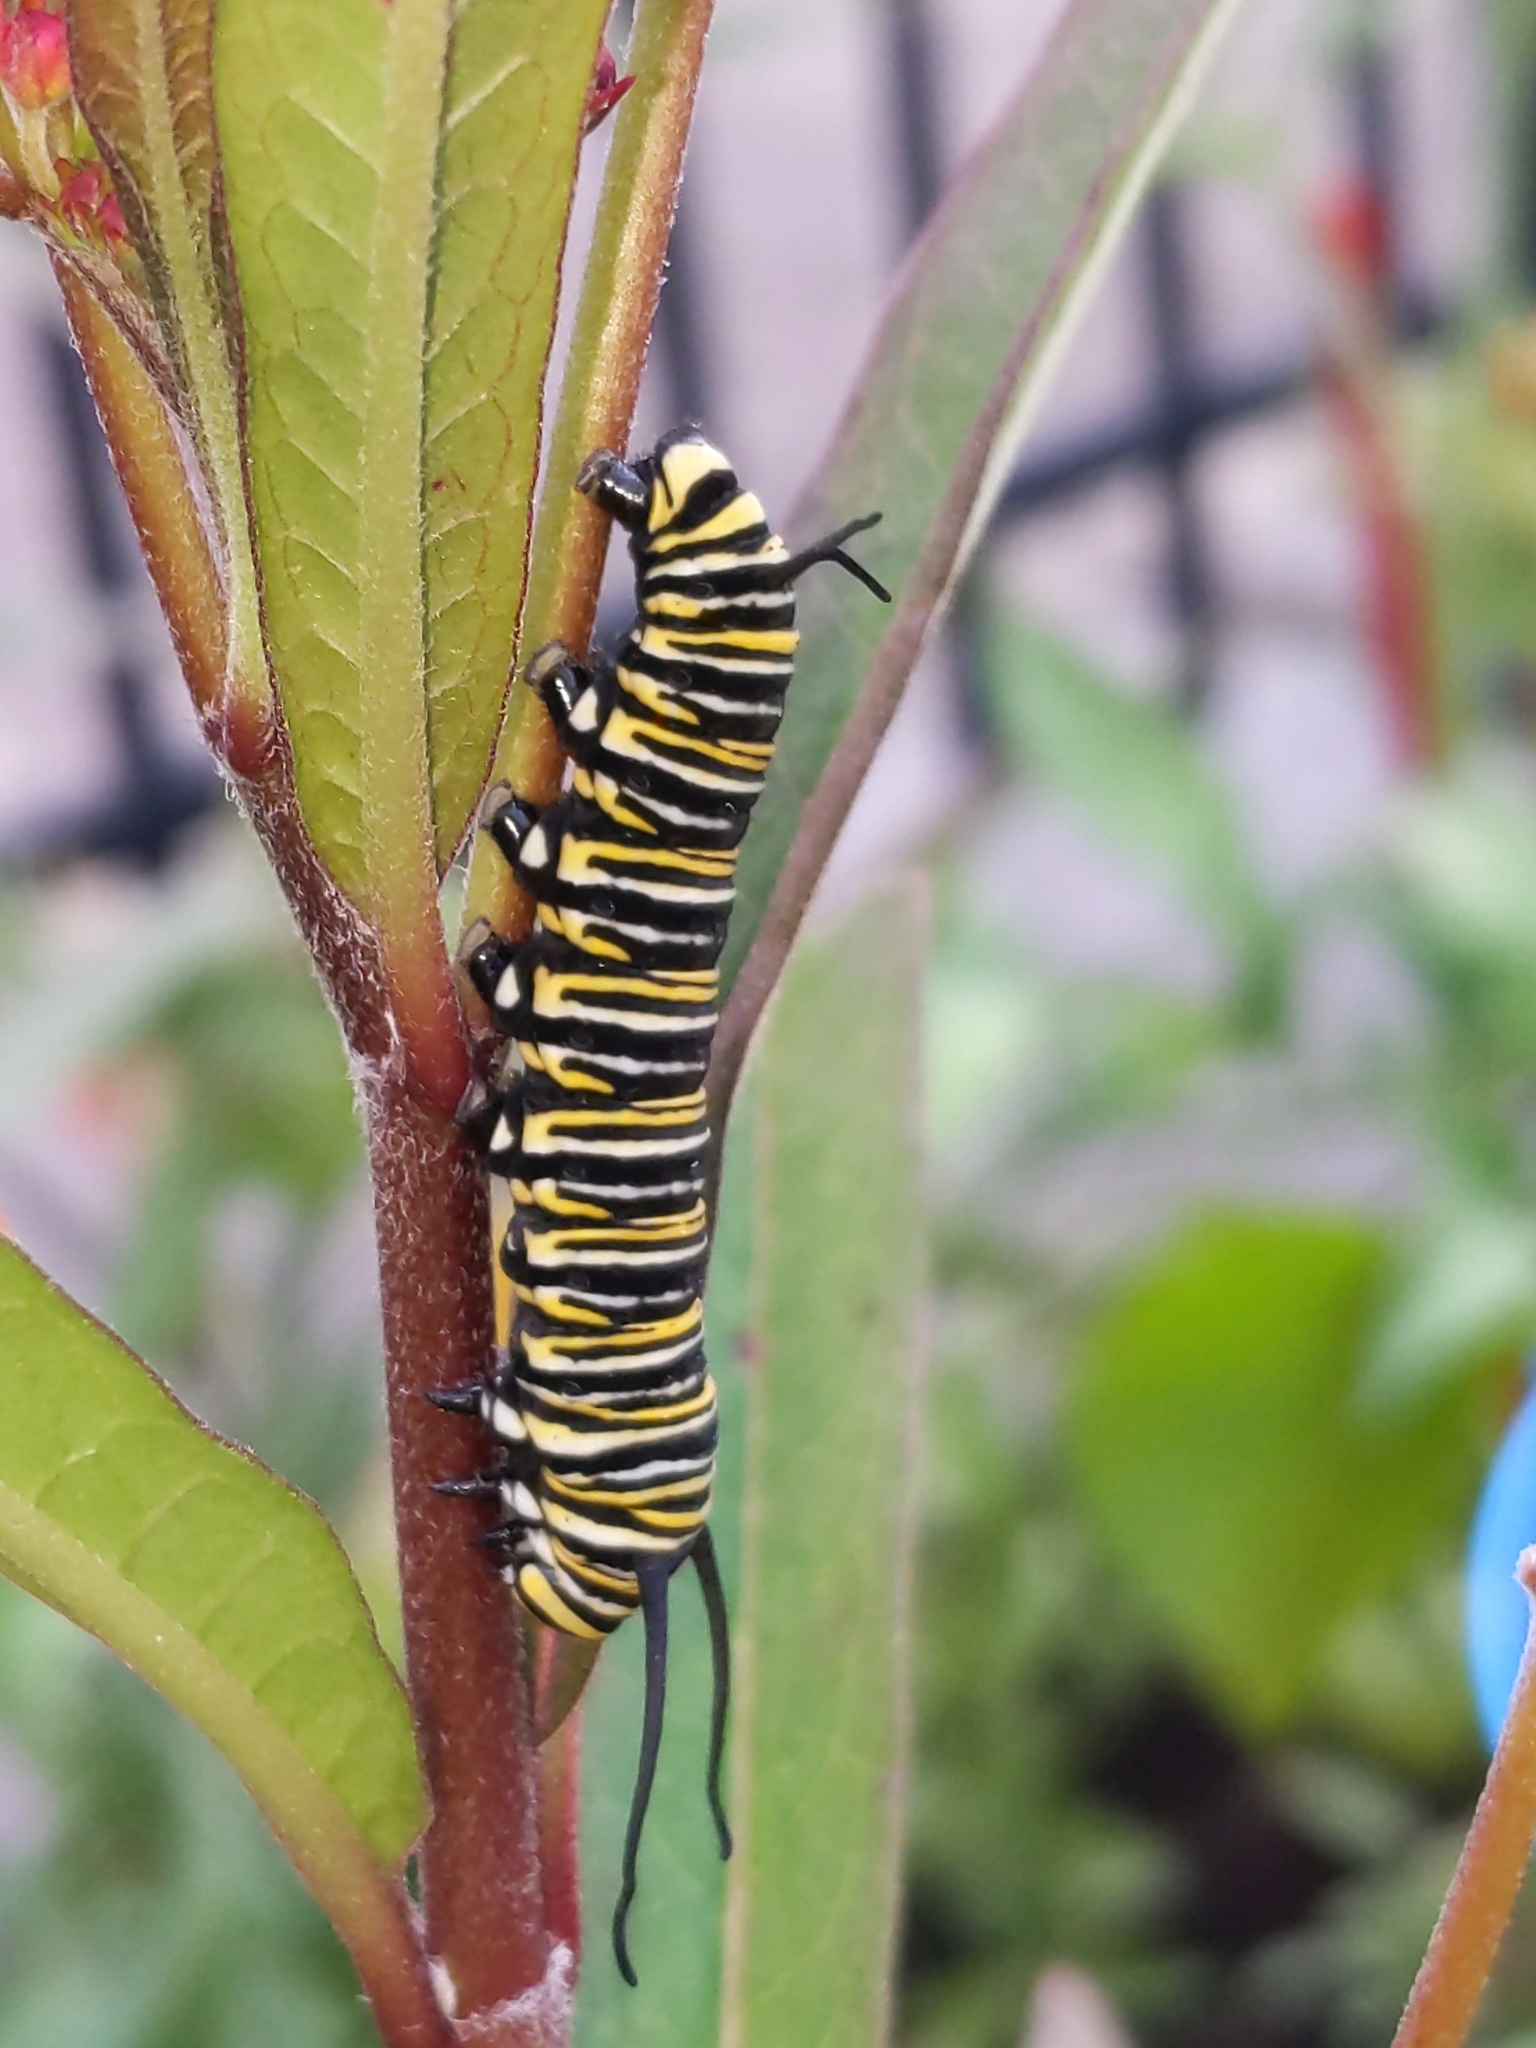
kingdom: Animalia
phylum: Arthropoda
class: Insecta
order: Lepidoptera
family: Nymphalidae
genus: Danaus
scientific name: Danaus plexippus
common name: Monarch
